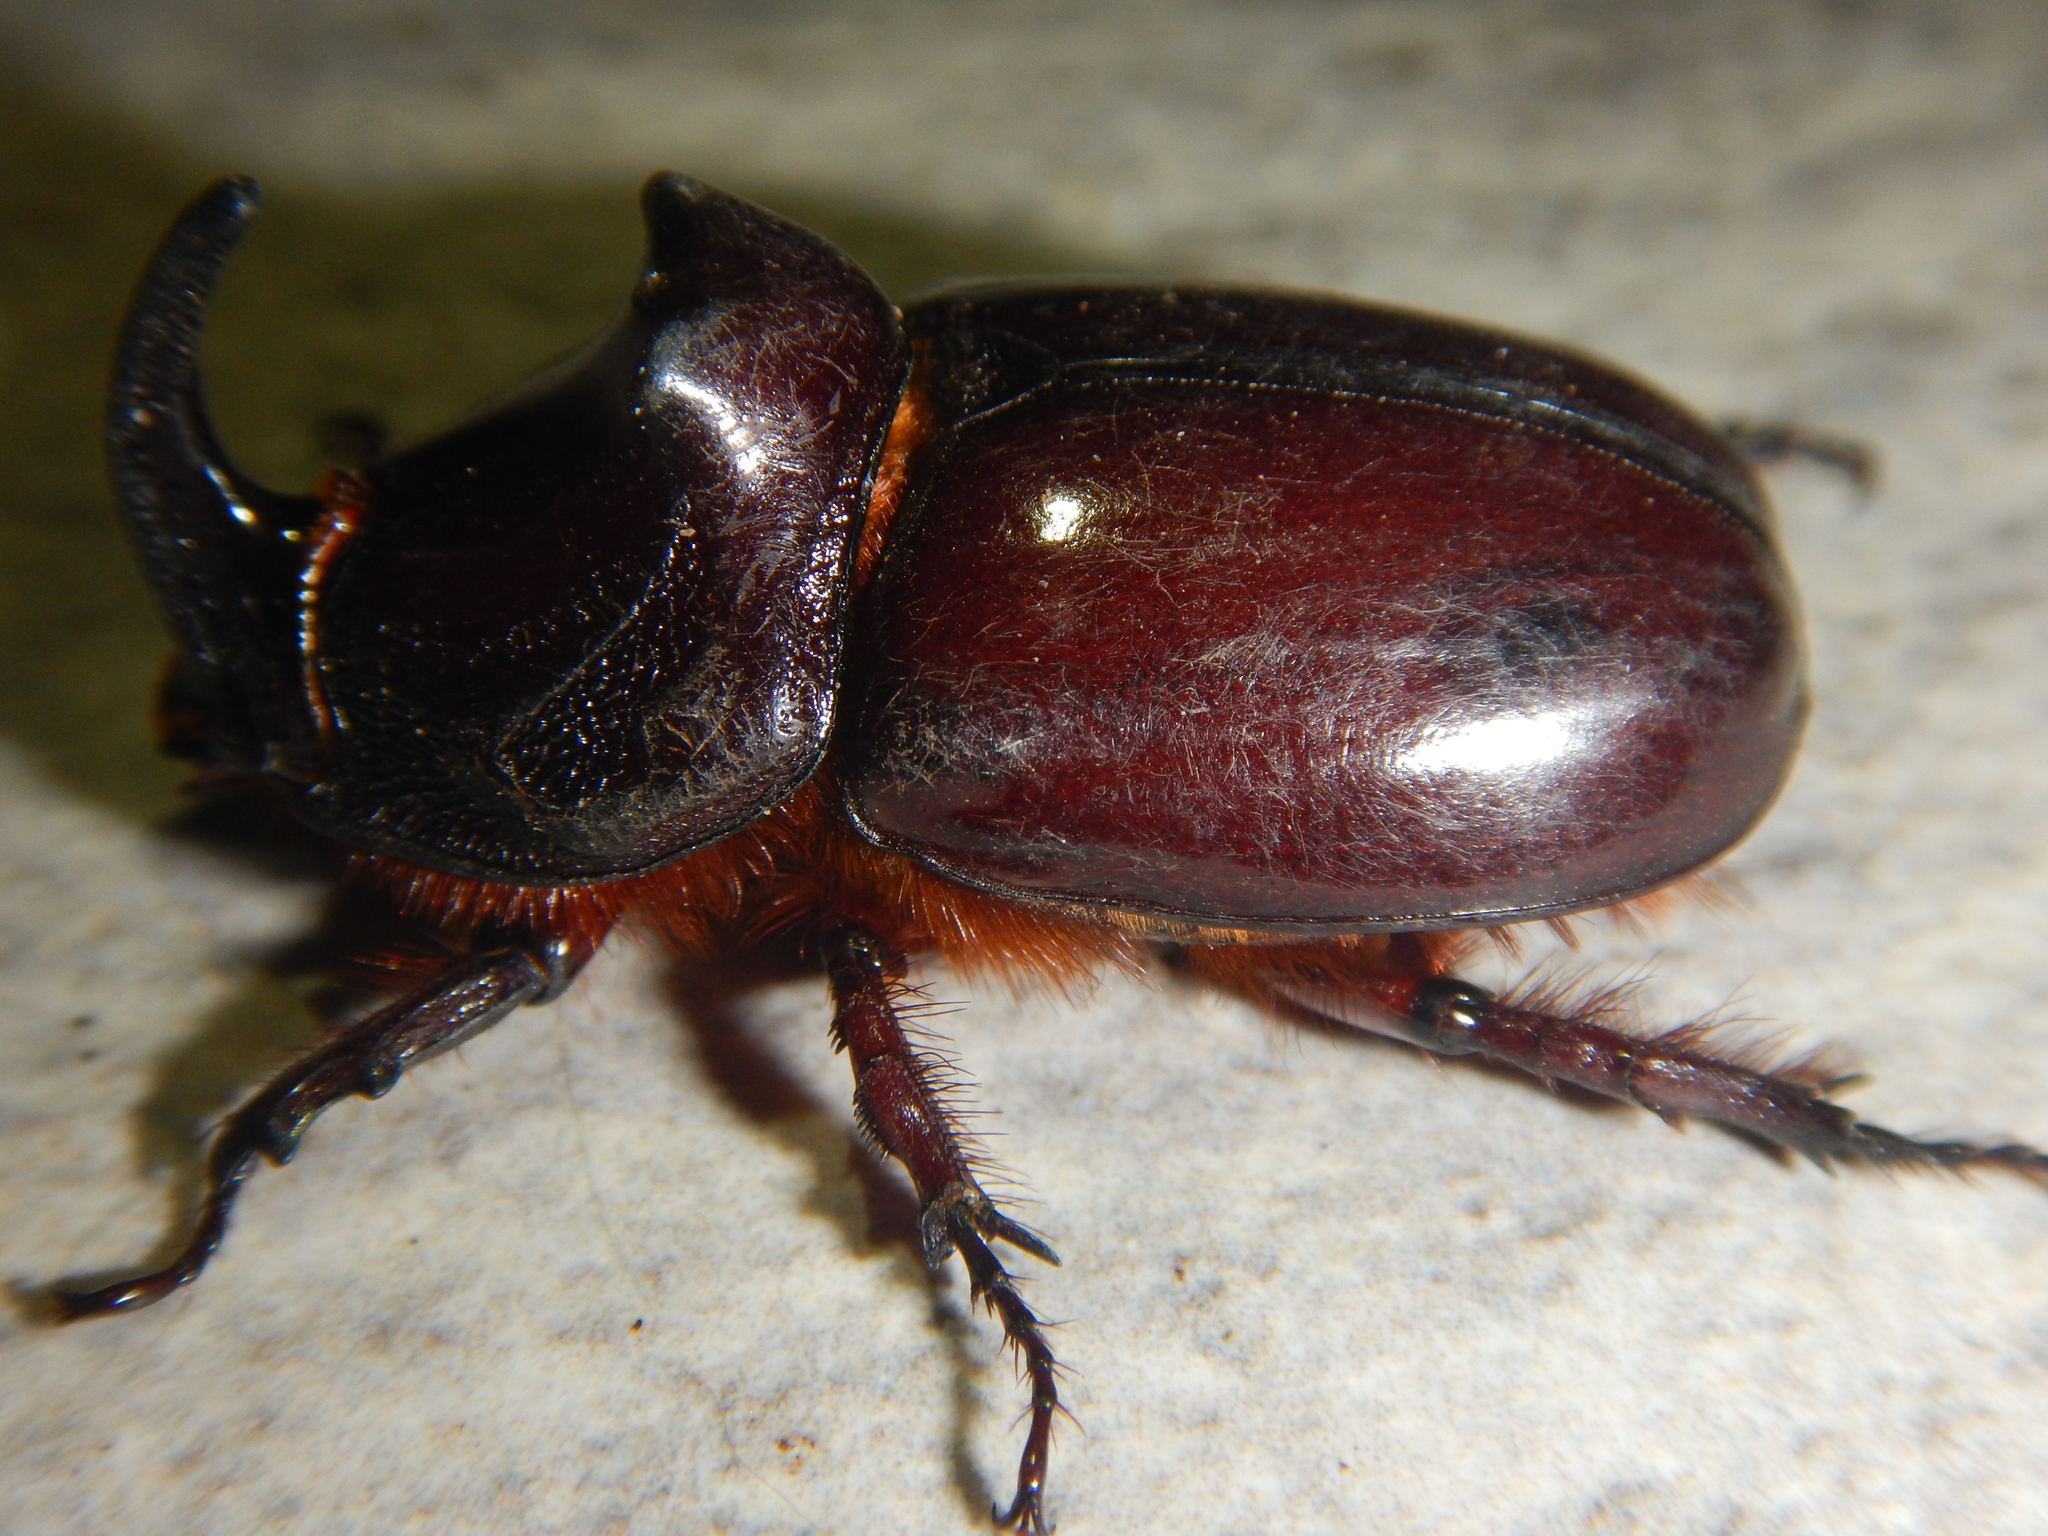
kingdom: Animalia
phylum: Arthropoda
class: Insecta
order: Coleoptera
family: Scarabaeidae
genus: Oryctes
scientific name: Oryctes nasicornis
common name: European rhinoceros beetle
